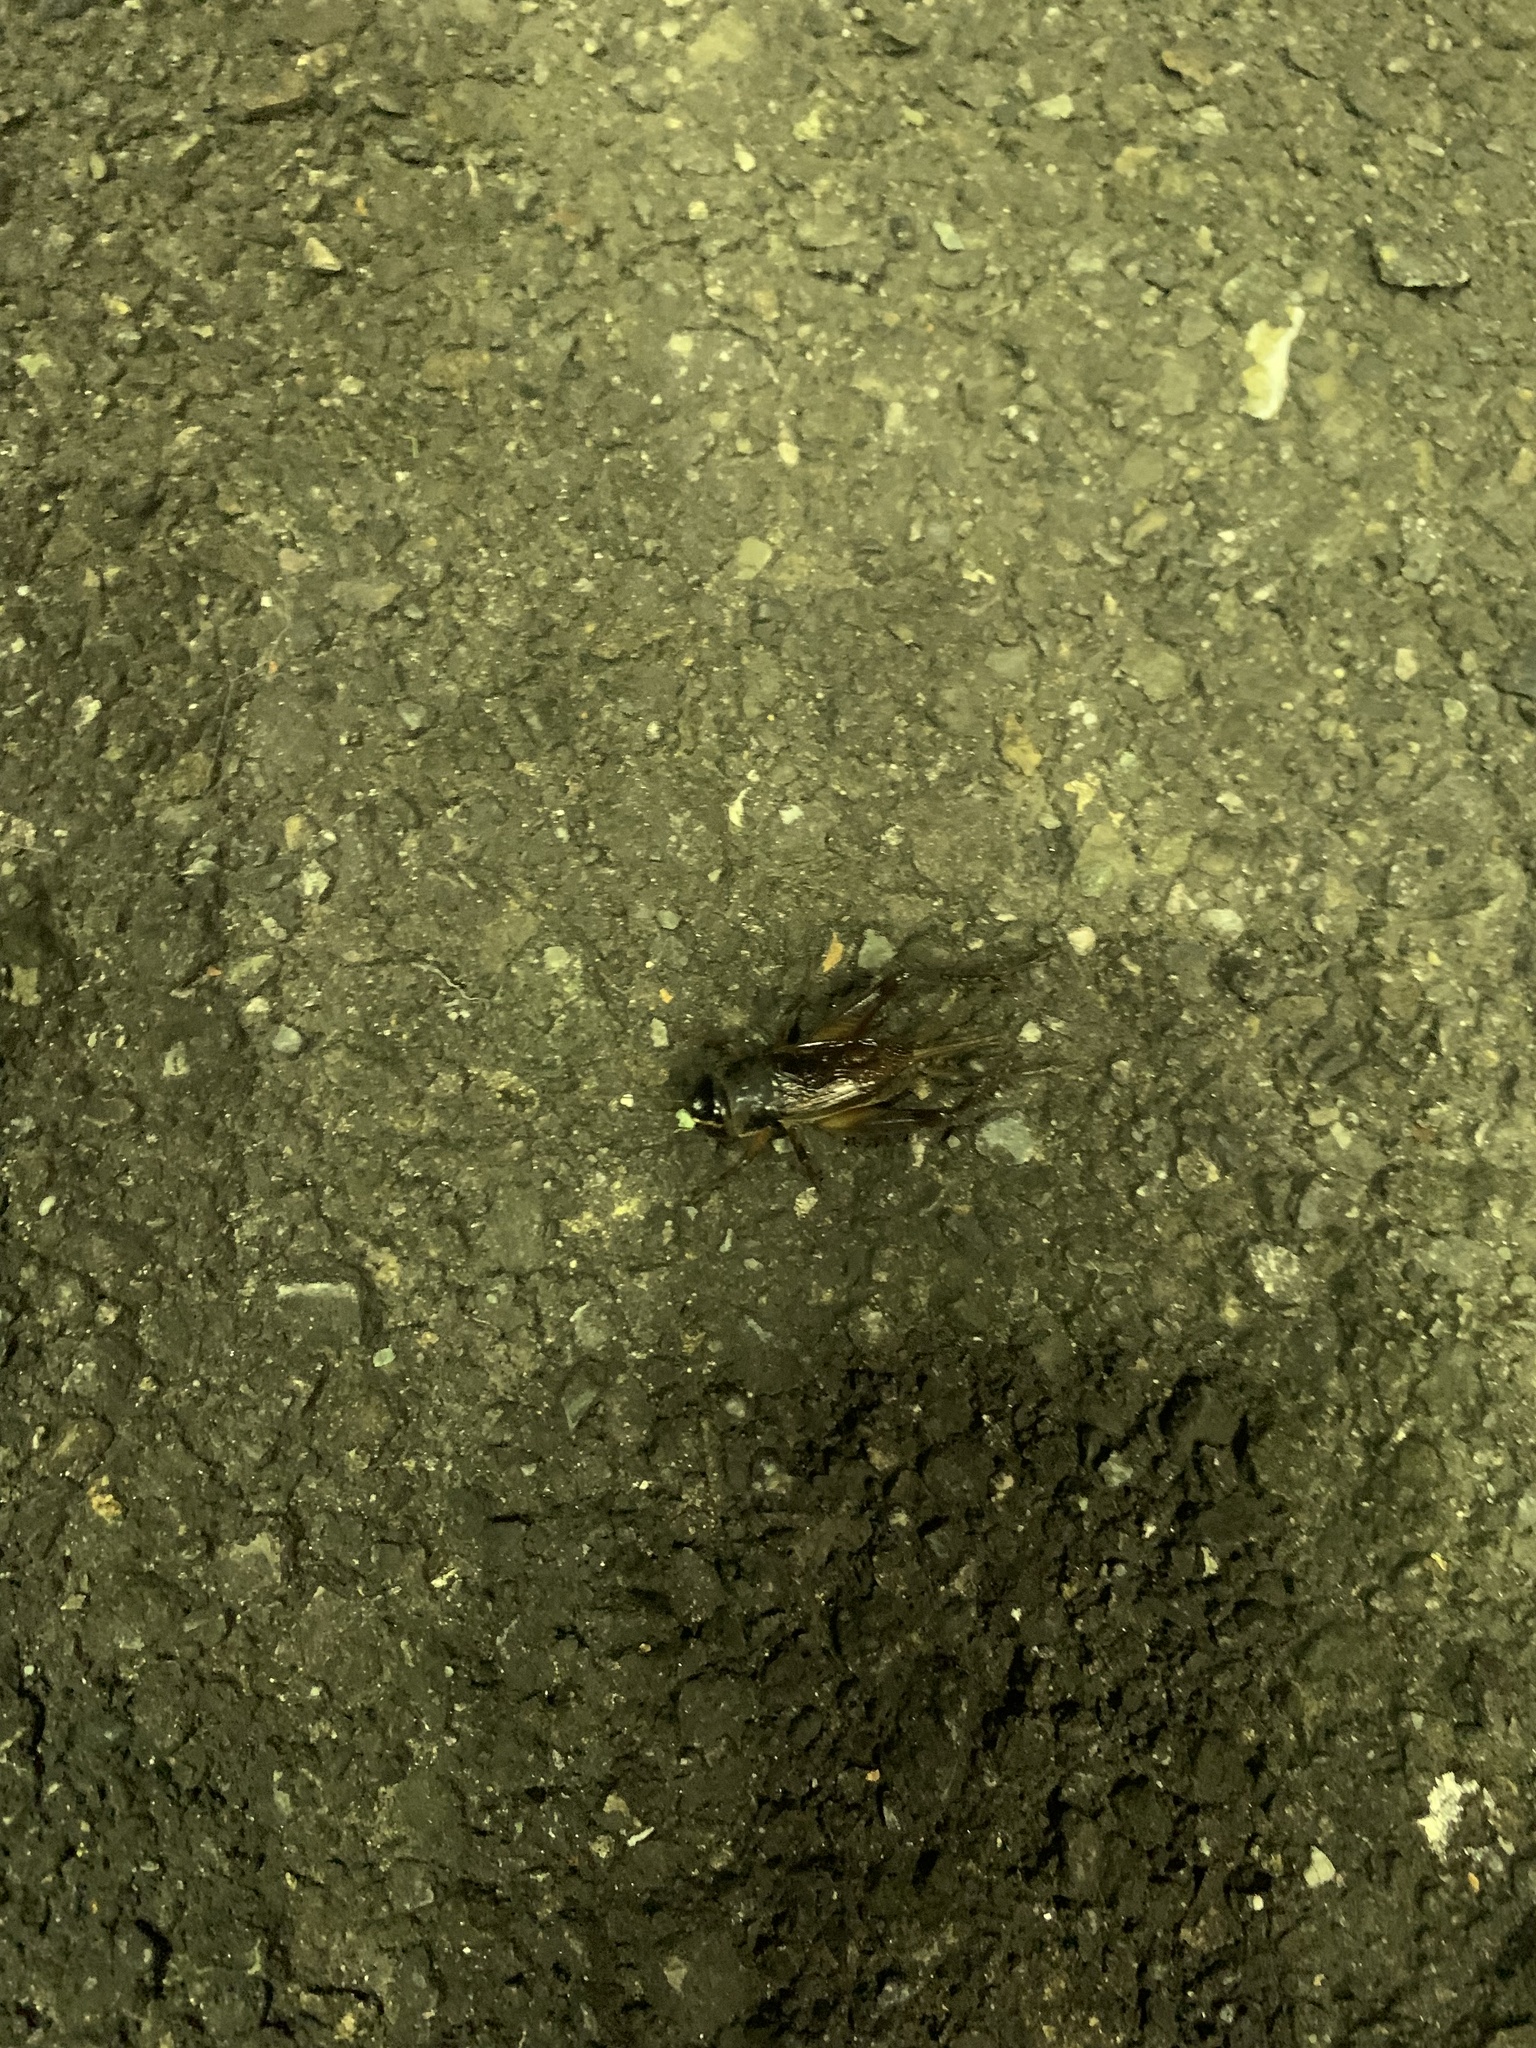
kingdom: Animalia
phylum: Arthropoda
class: Insecta
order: Orthoptera
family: Gryllidae
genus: Teleogryllus
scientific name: Teleogryllus emma
